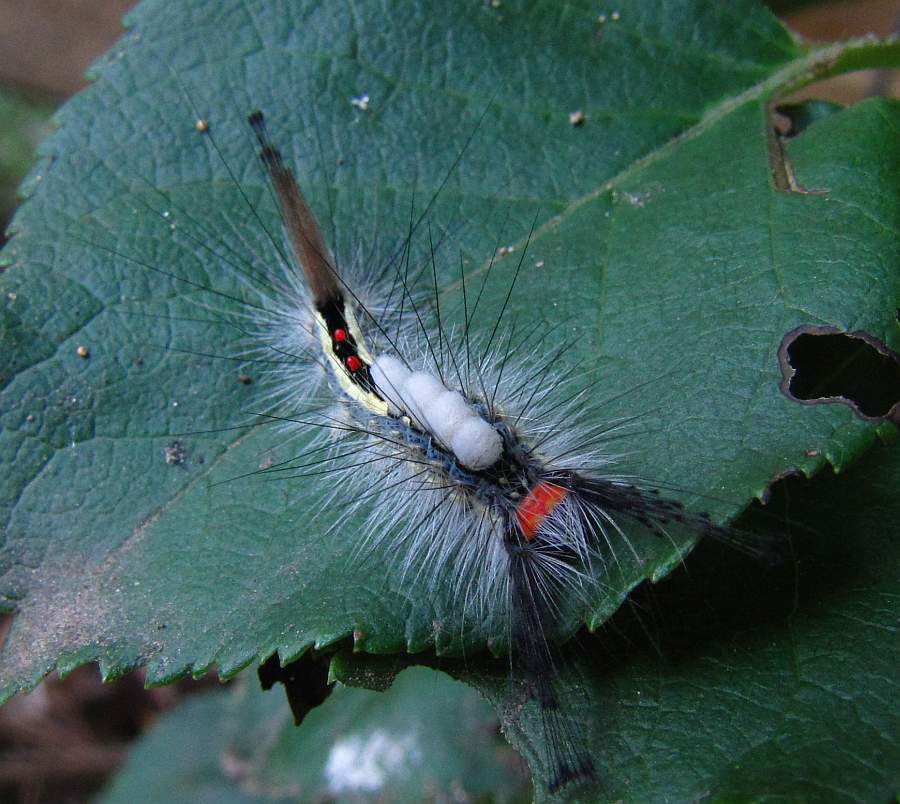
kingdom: Animalia
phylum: Arthropoda
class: Insecta
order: Lepidoptera
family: Erebidae
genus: Orgyia
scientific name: Orgyia leucostigma
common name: White-marked tussock moth
